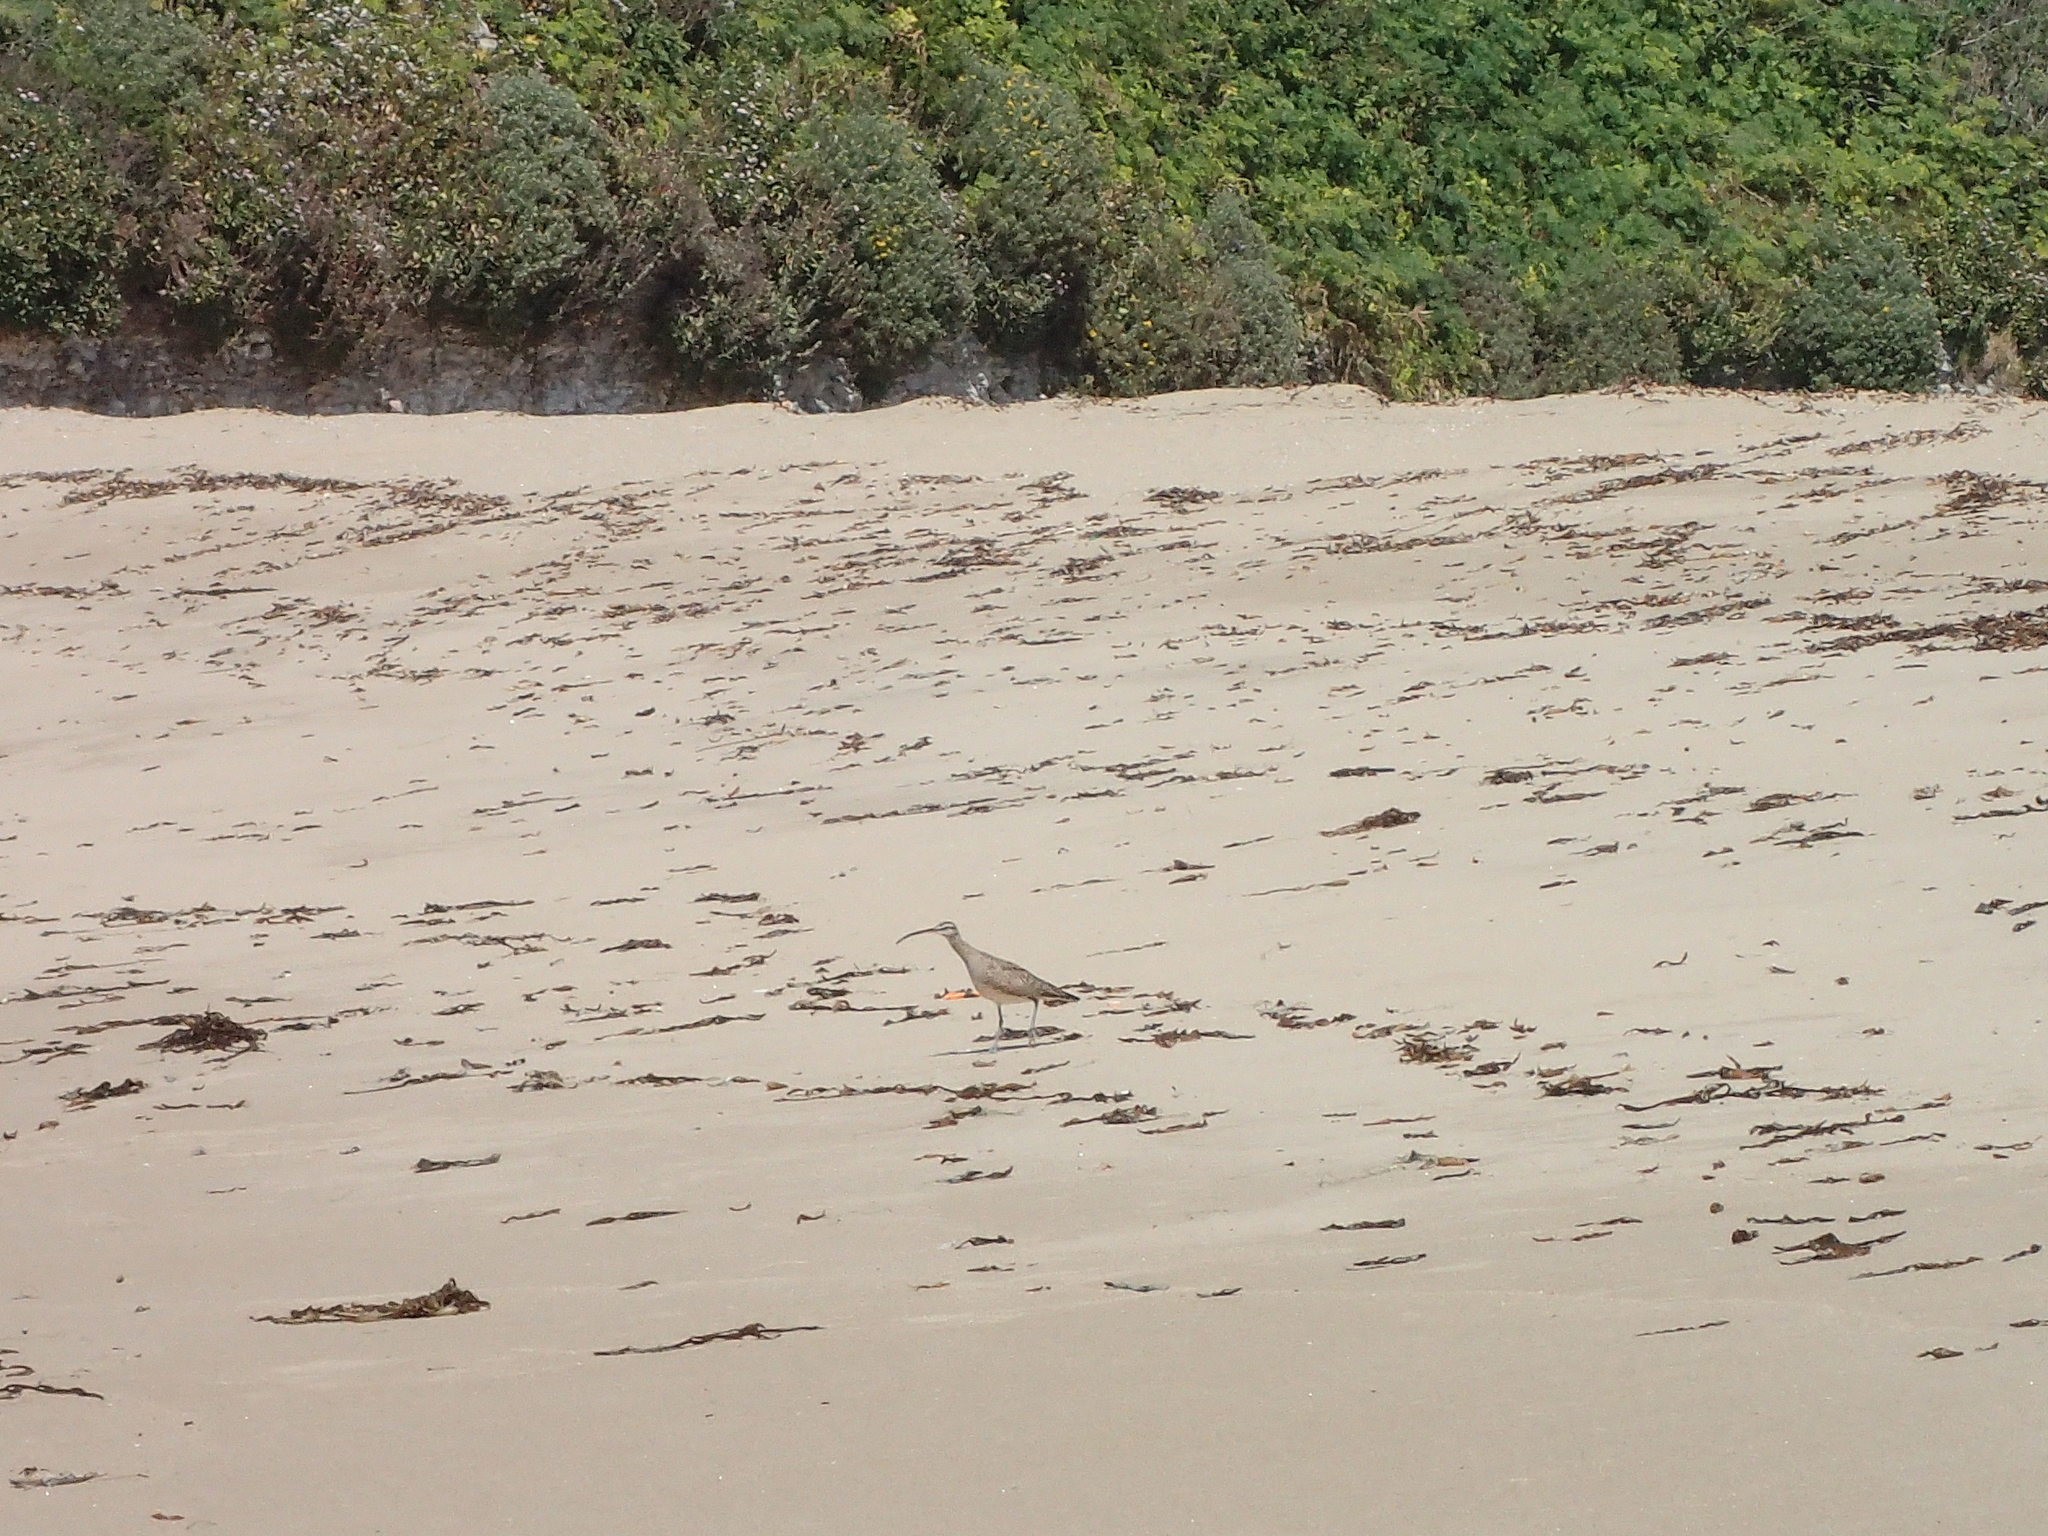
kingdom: Animalia
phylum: Chordata
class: Aves
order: Charadriiformes
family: Scolopacidae
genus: Numenius
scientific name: Numenius phaeopus
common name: Whimbrel
